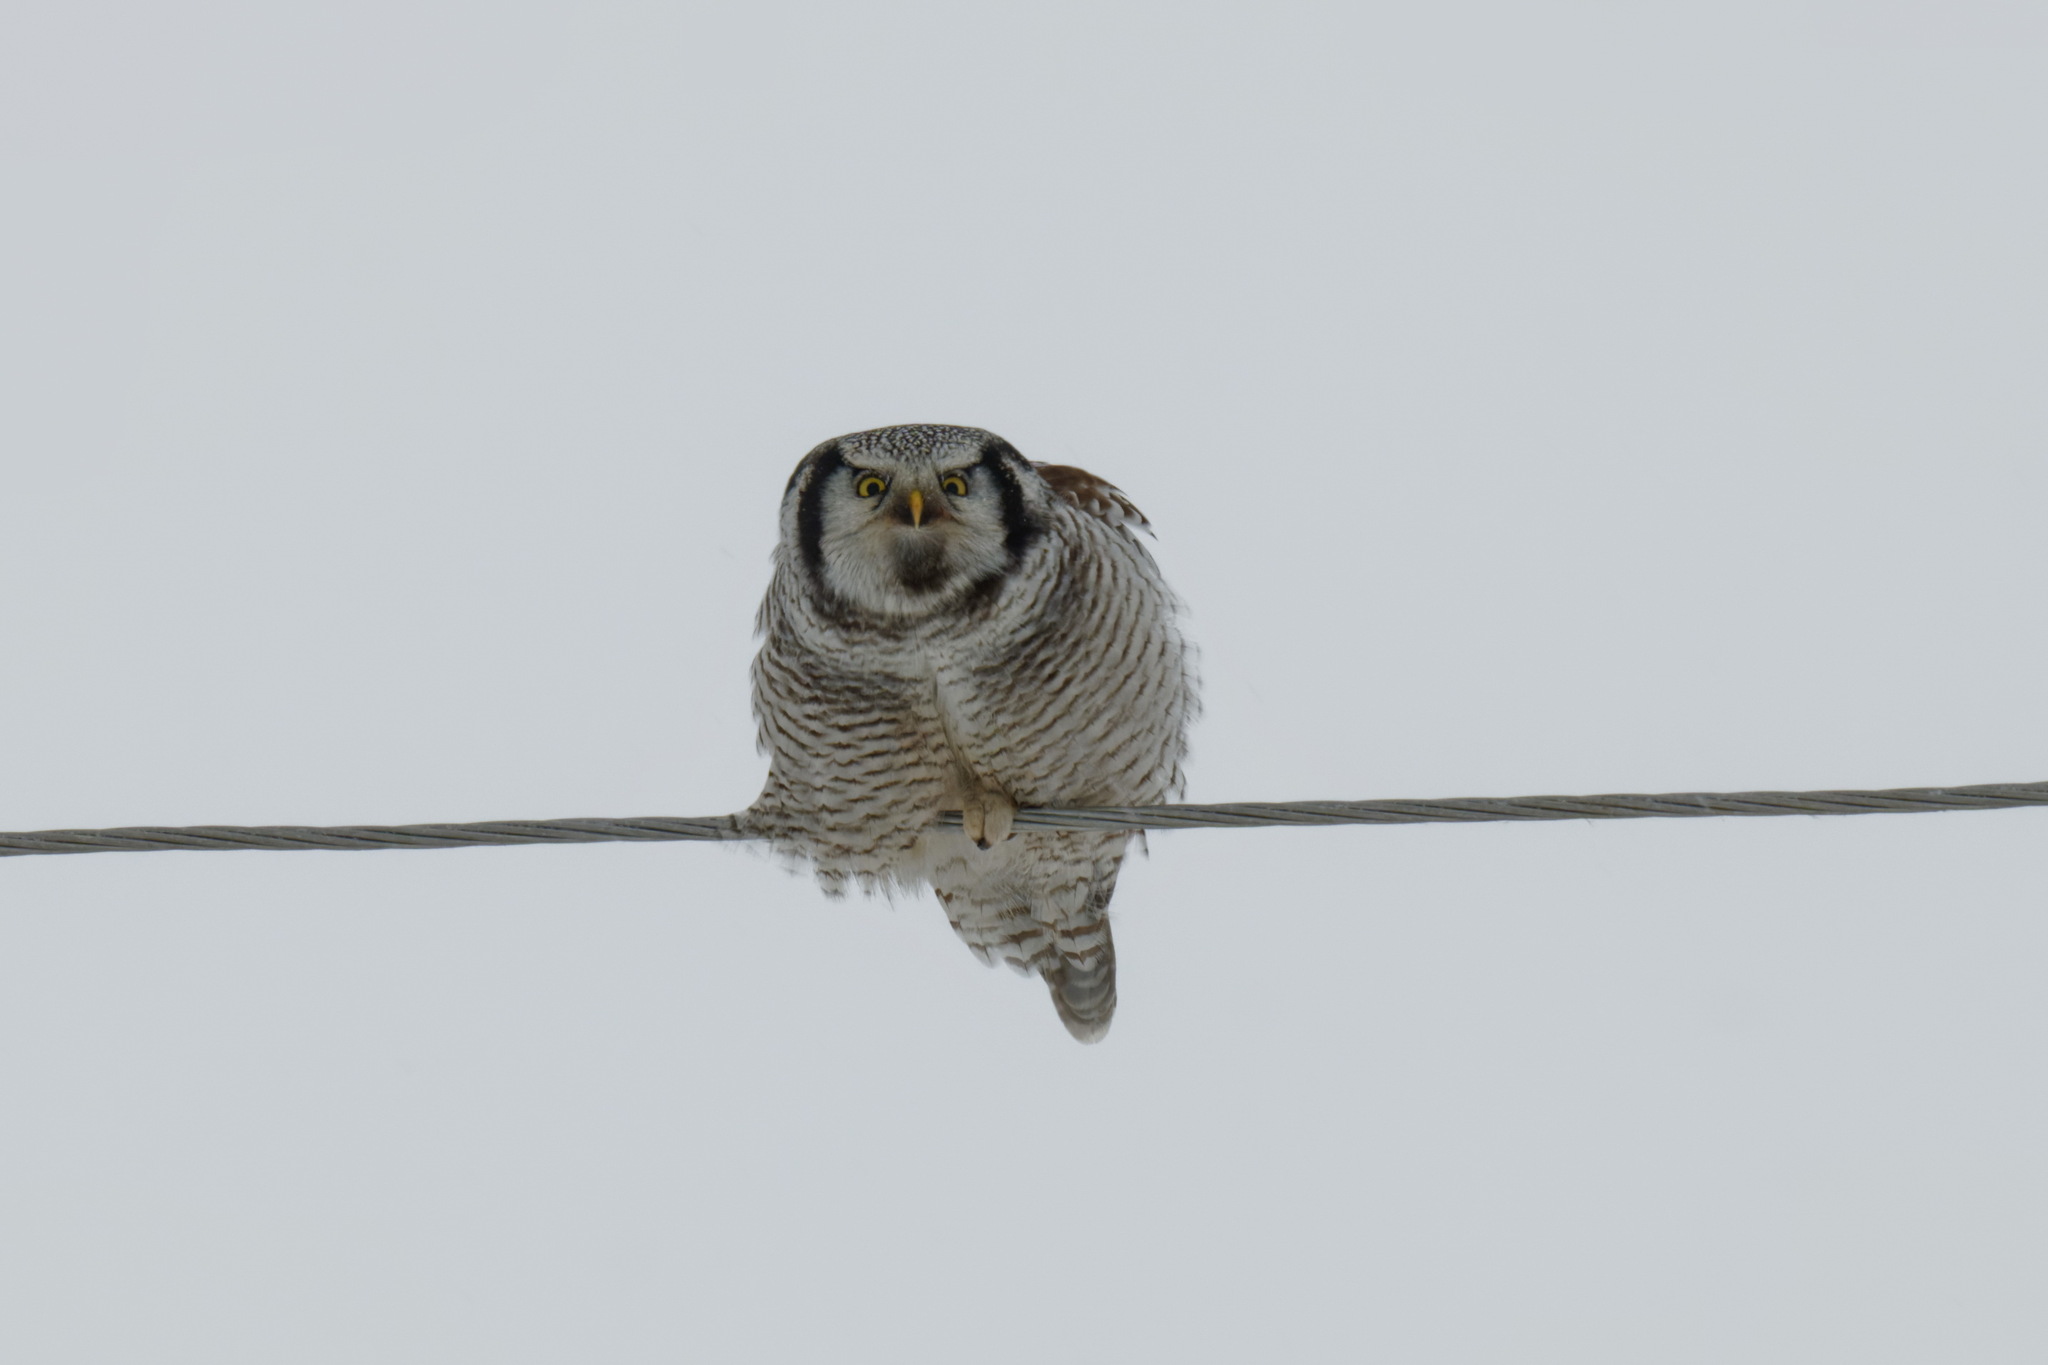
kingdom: Animalia
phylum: Chordata
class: Aves
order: Strigiformes
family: Strigidae
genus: Surnia
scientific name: Surnia ulula
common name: Northern hawk-owl
